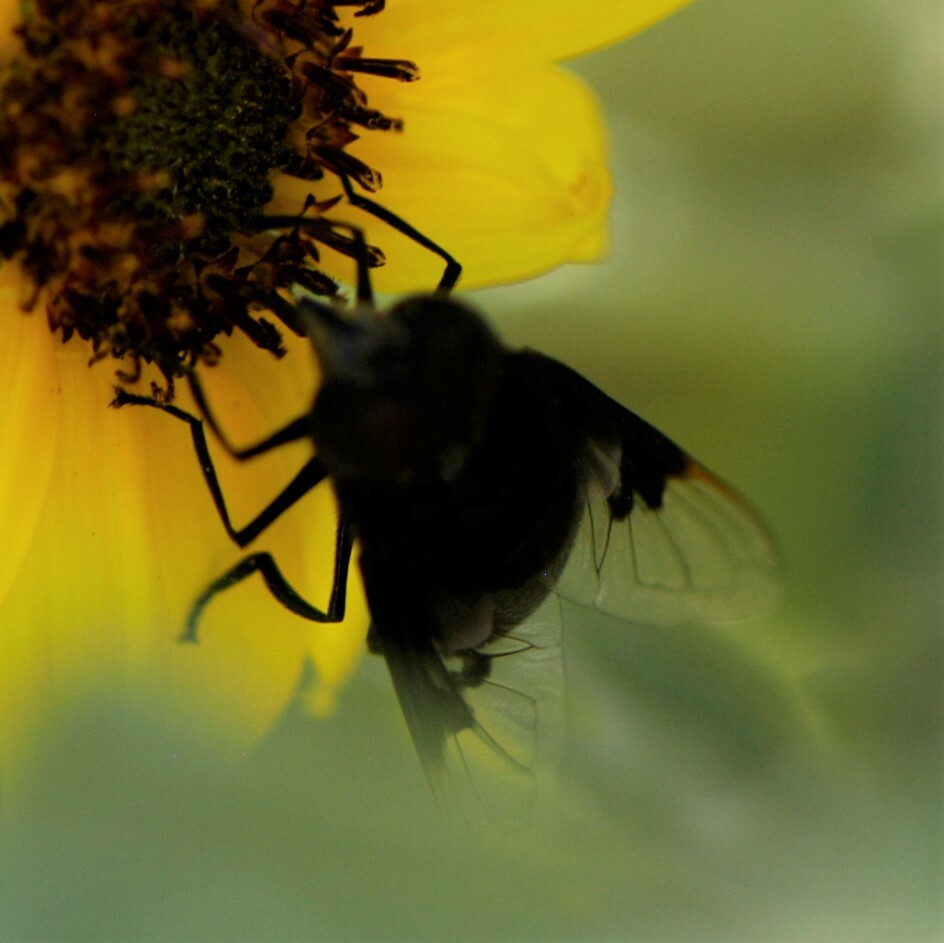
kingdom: Animalia
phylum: Arthropoda
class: Insecta
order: Diptera
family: Syrphidae
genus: Copestylum
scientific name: Copestylum
